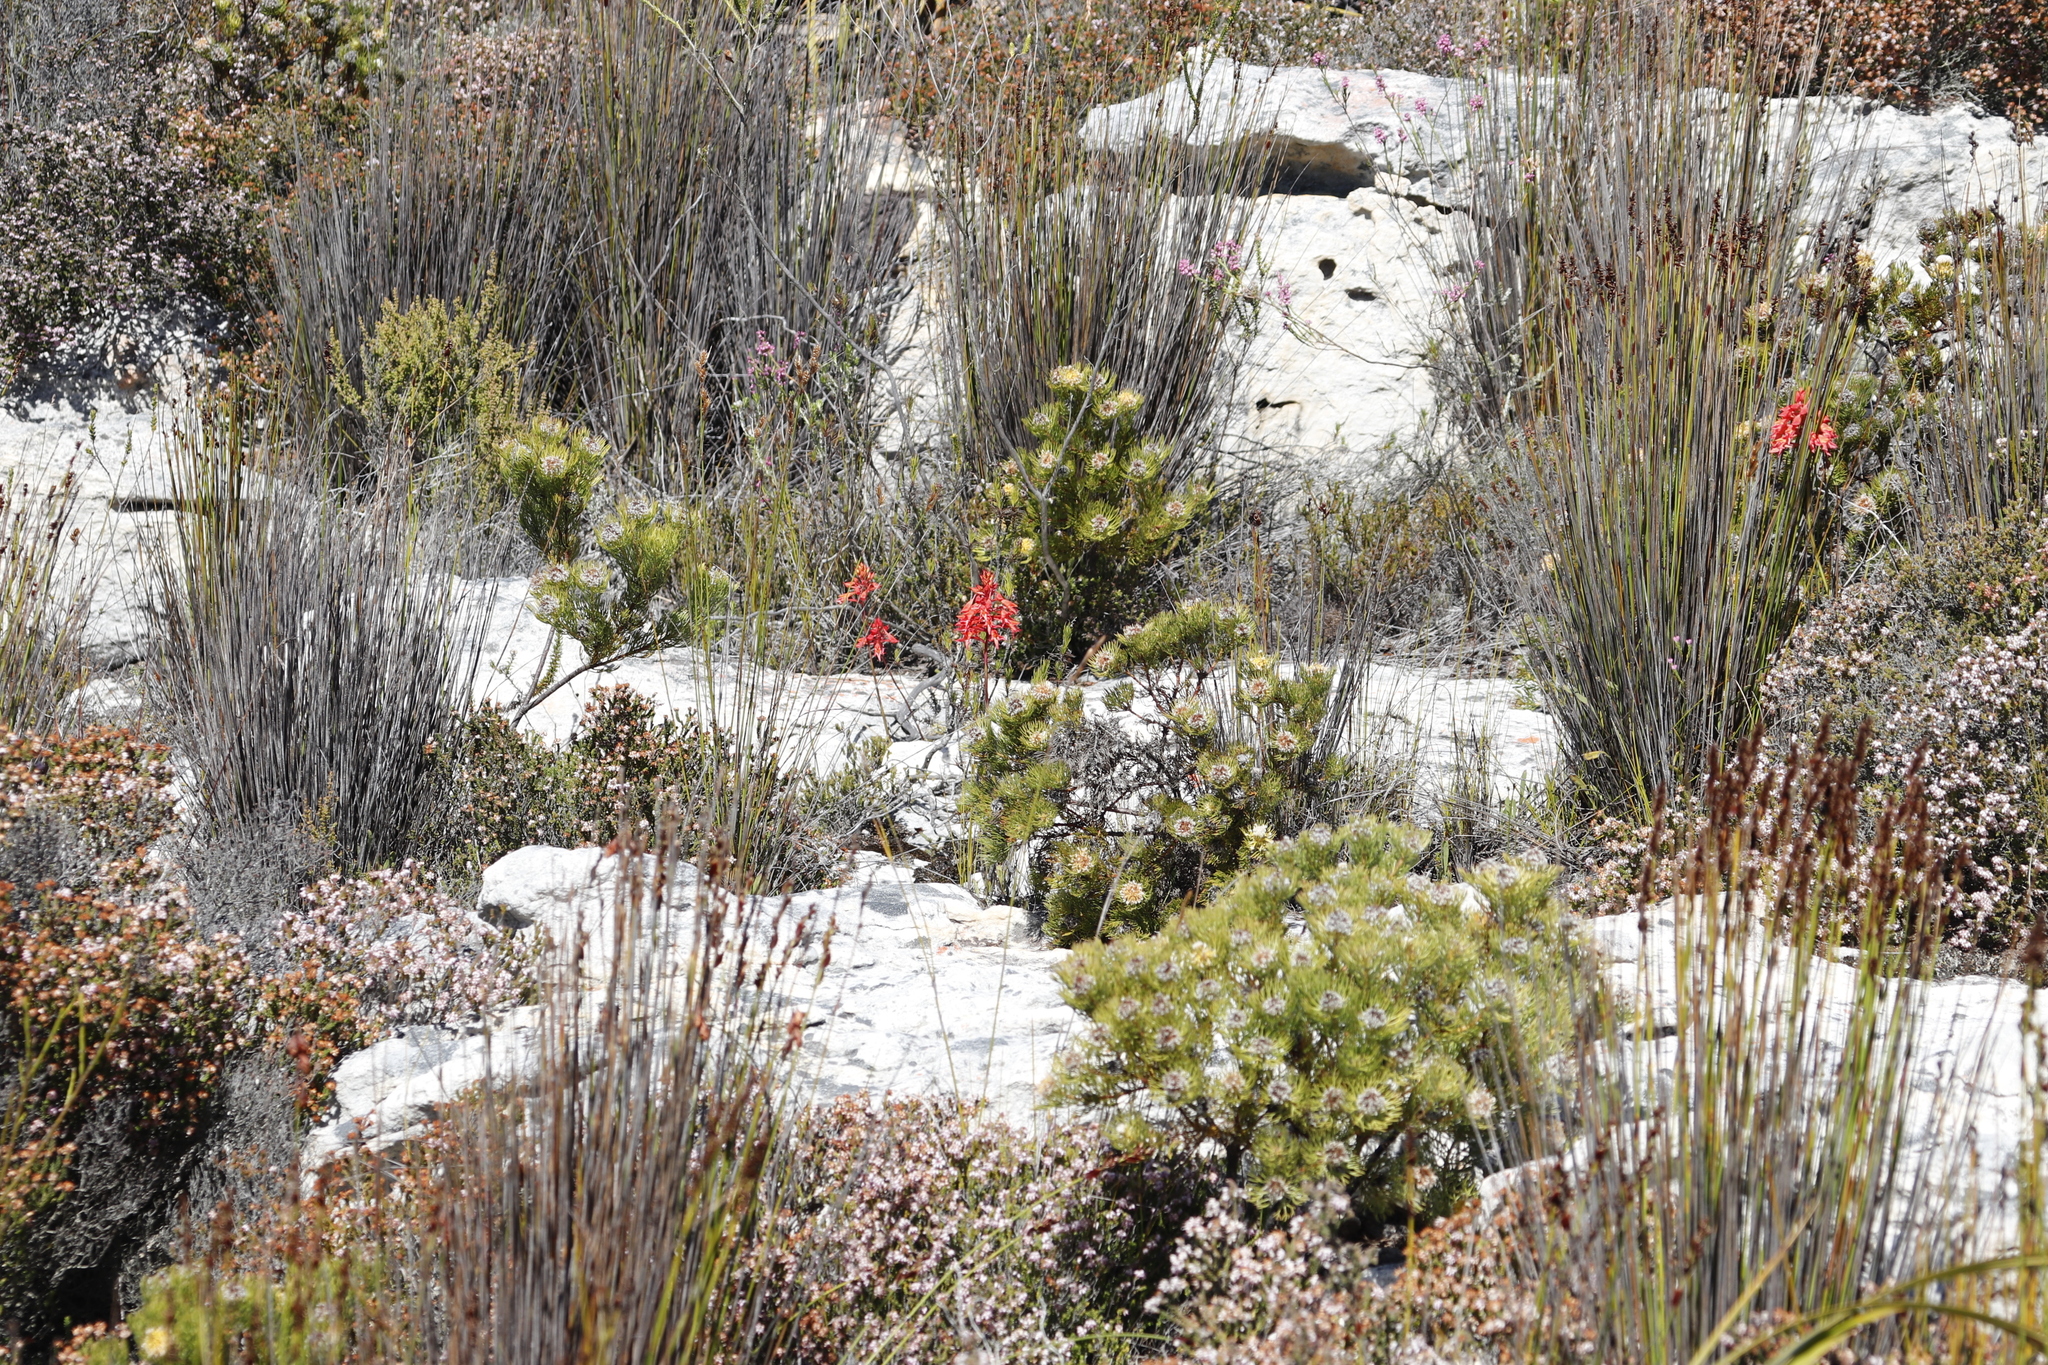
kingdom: Plantae
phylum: Tracheophyta
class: Liliopsida
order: Asparagales
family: Orchidaceae
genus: Disa
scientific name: Disa ferruginea
